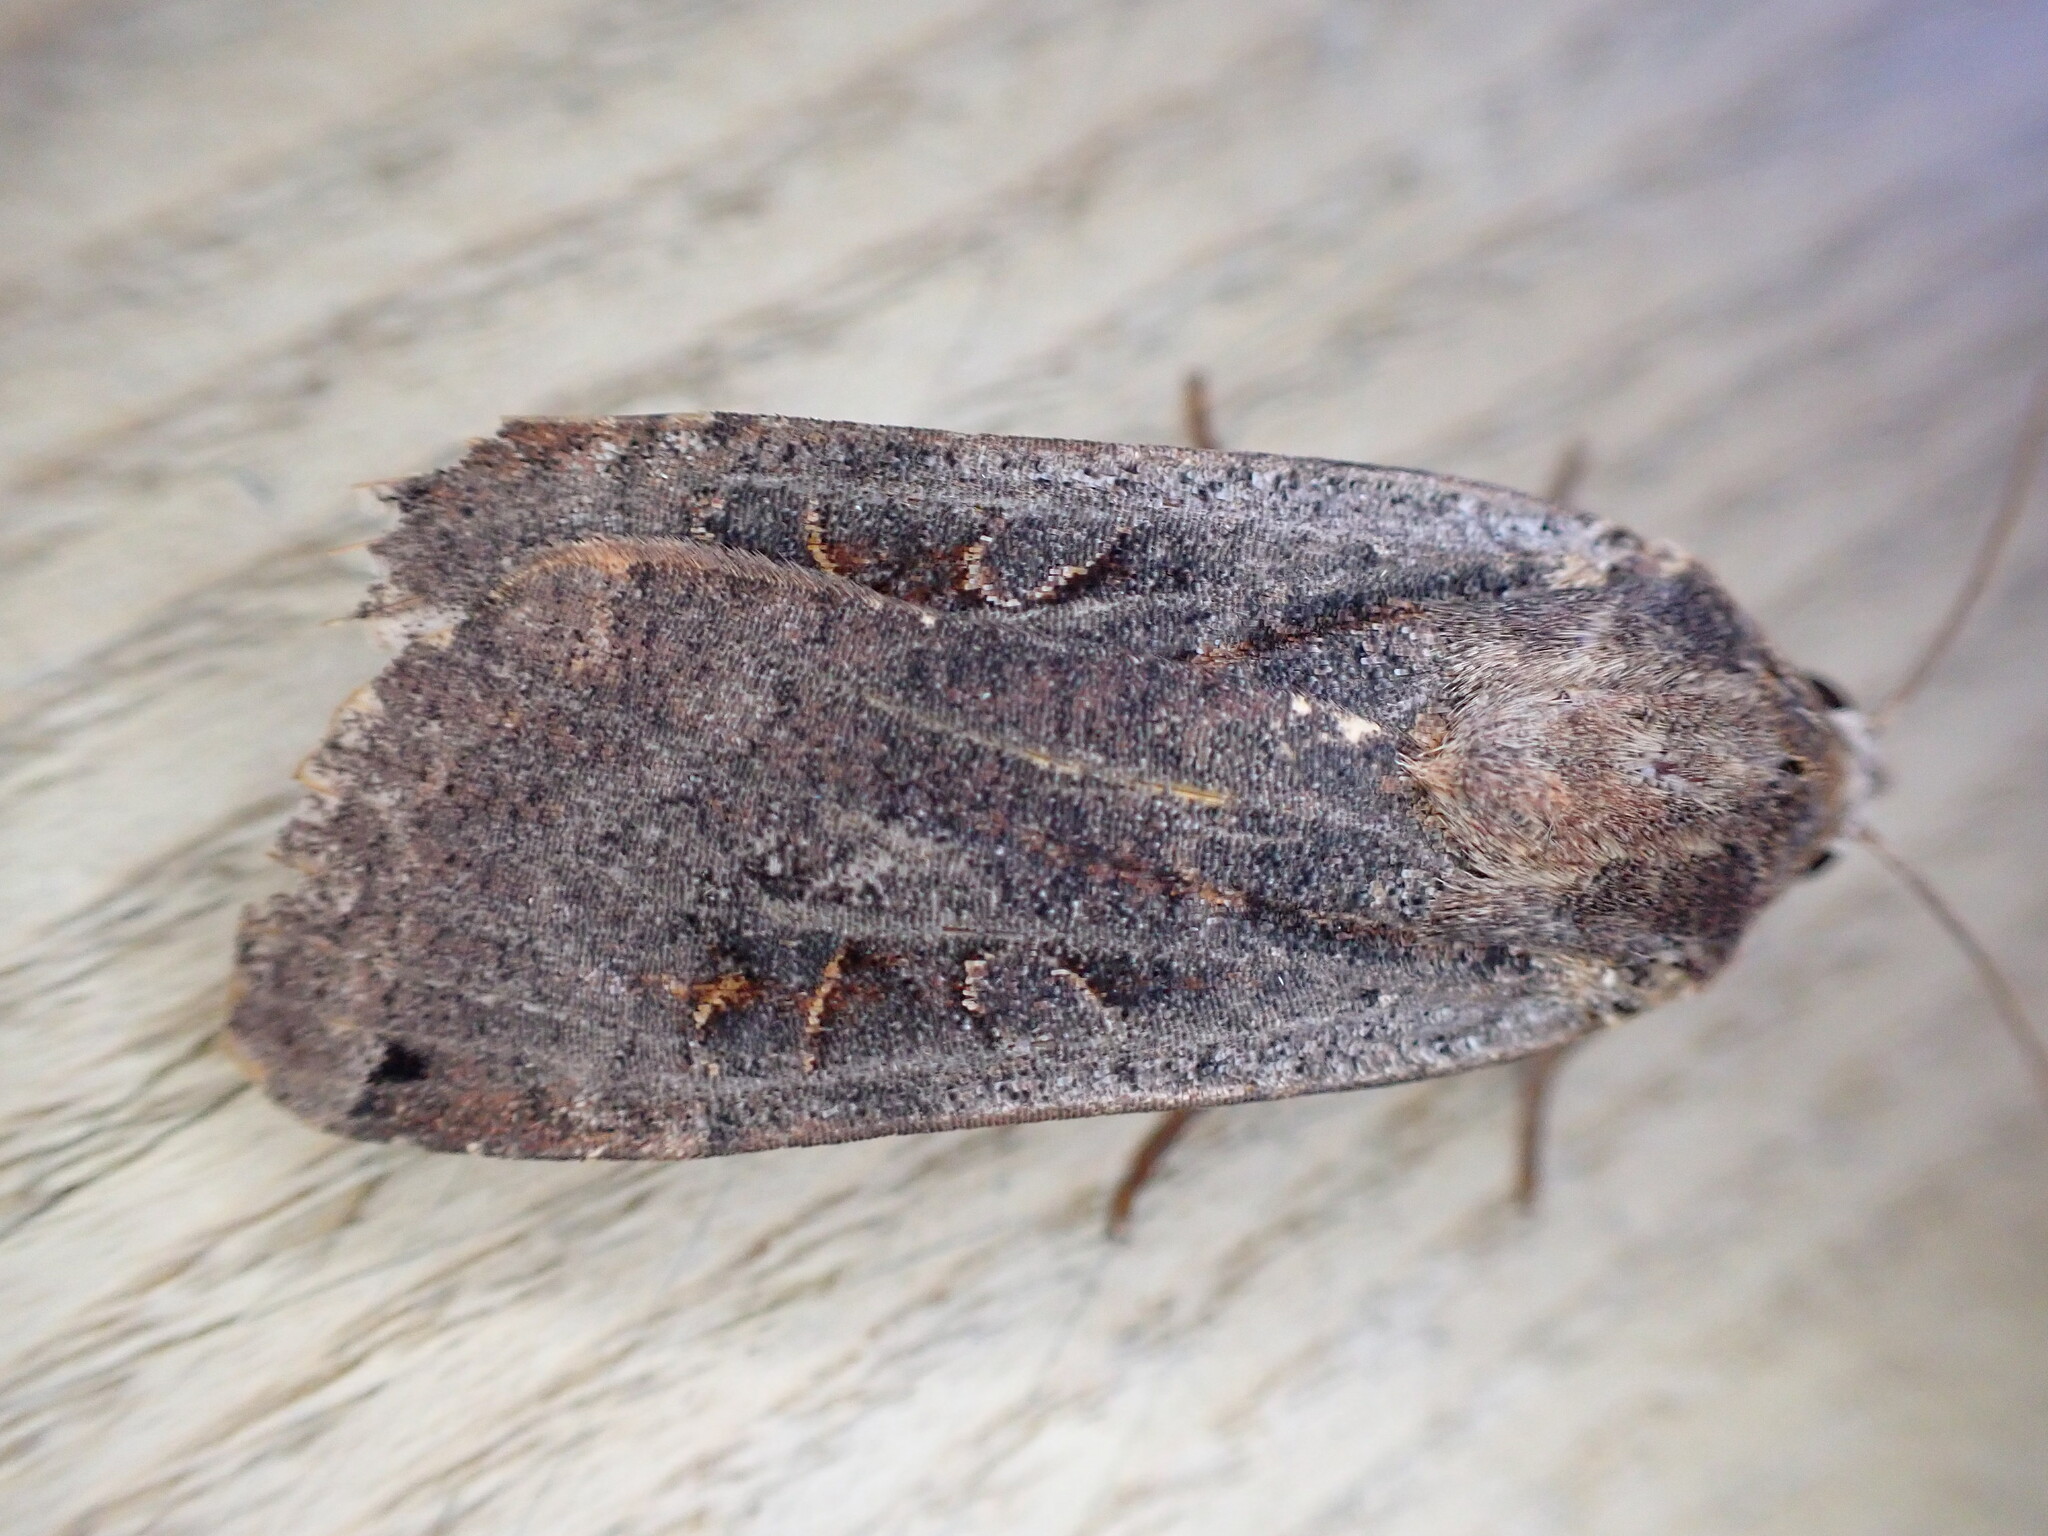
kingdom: Animalia
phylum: Arthropoda
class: Insecta
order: Lepidoptera
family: Noctuidae
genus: Noctua
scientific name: Noctua pronuba
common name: Large yellow underwing
